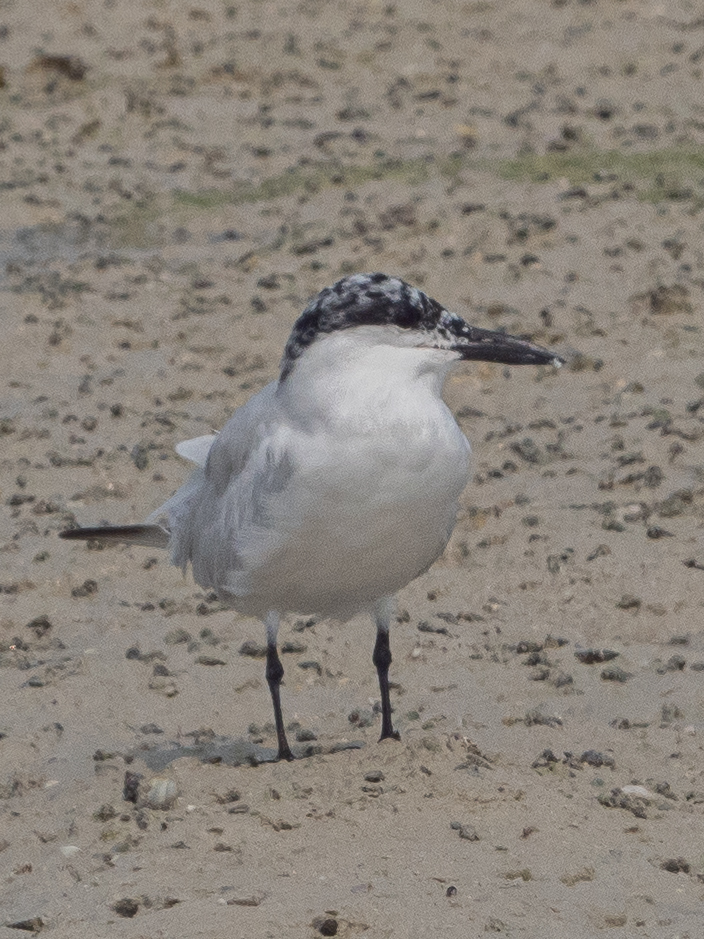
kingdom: Animalia
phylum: Chordata
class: Aves
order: Charadriiformes
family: Laridae
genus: Gelochelidon
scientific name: Gelochelidon nilotica
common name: Gull-billed tern
